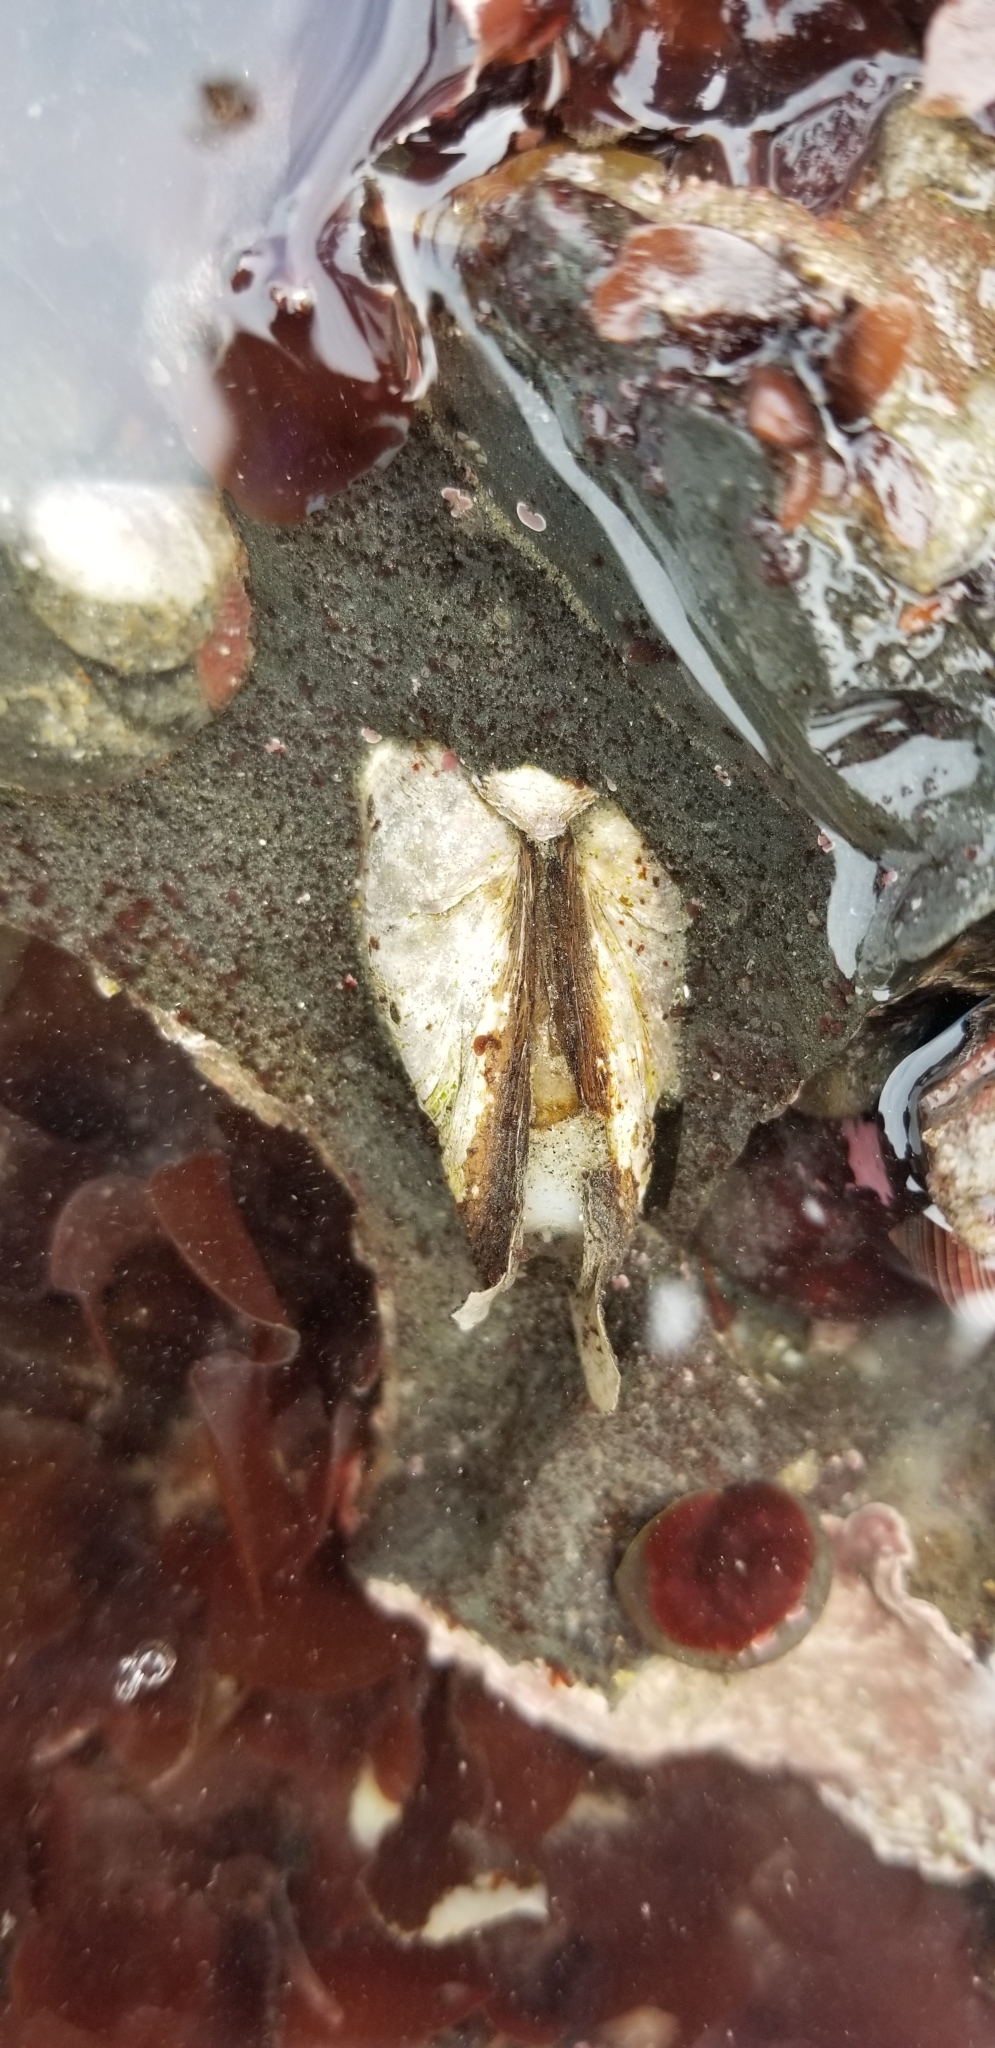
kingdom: Animalia
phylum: Mollusca
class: Bivalvia
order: Myida
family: Pholadidae
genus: Penitella
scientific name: Penitella penita
